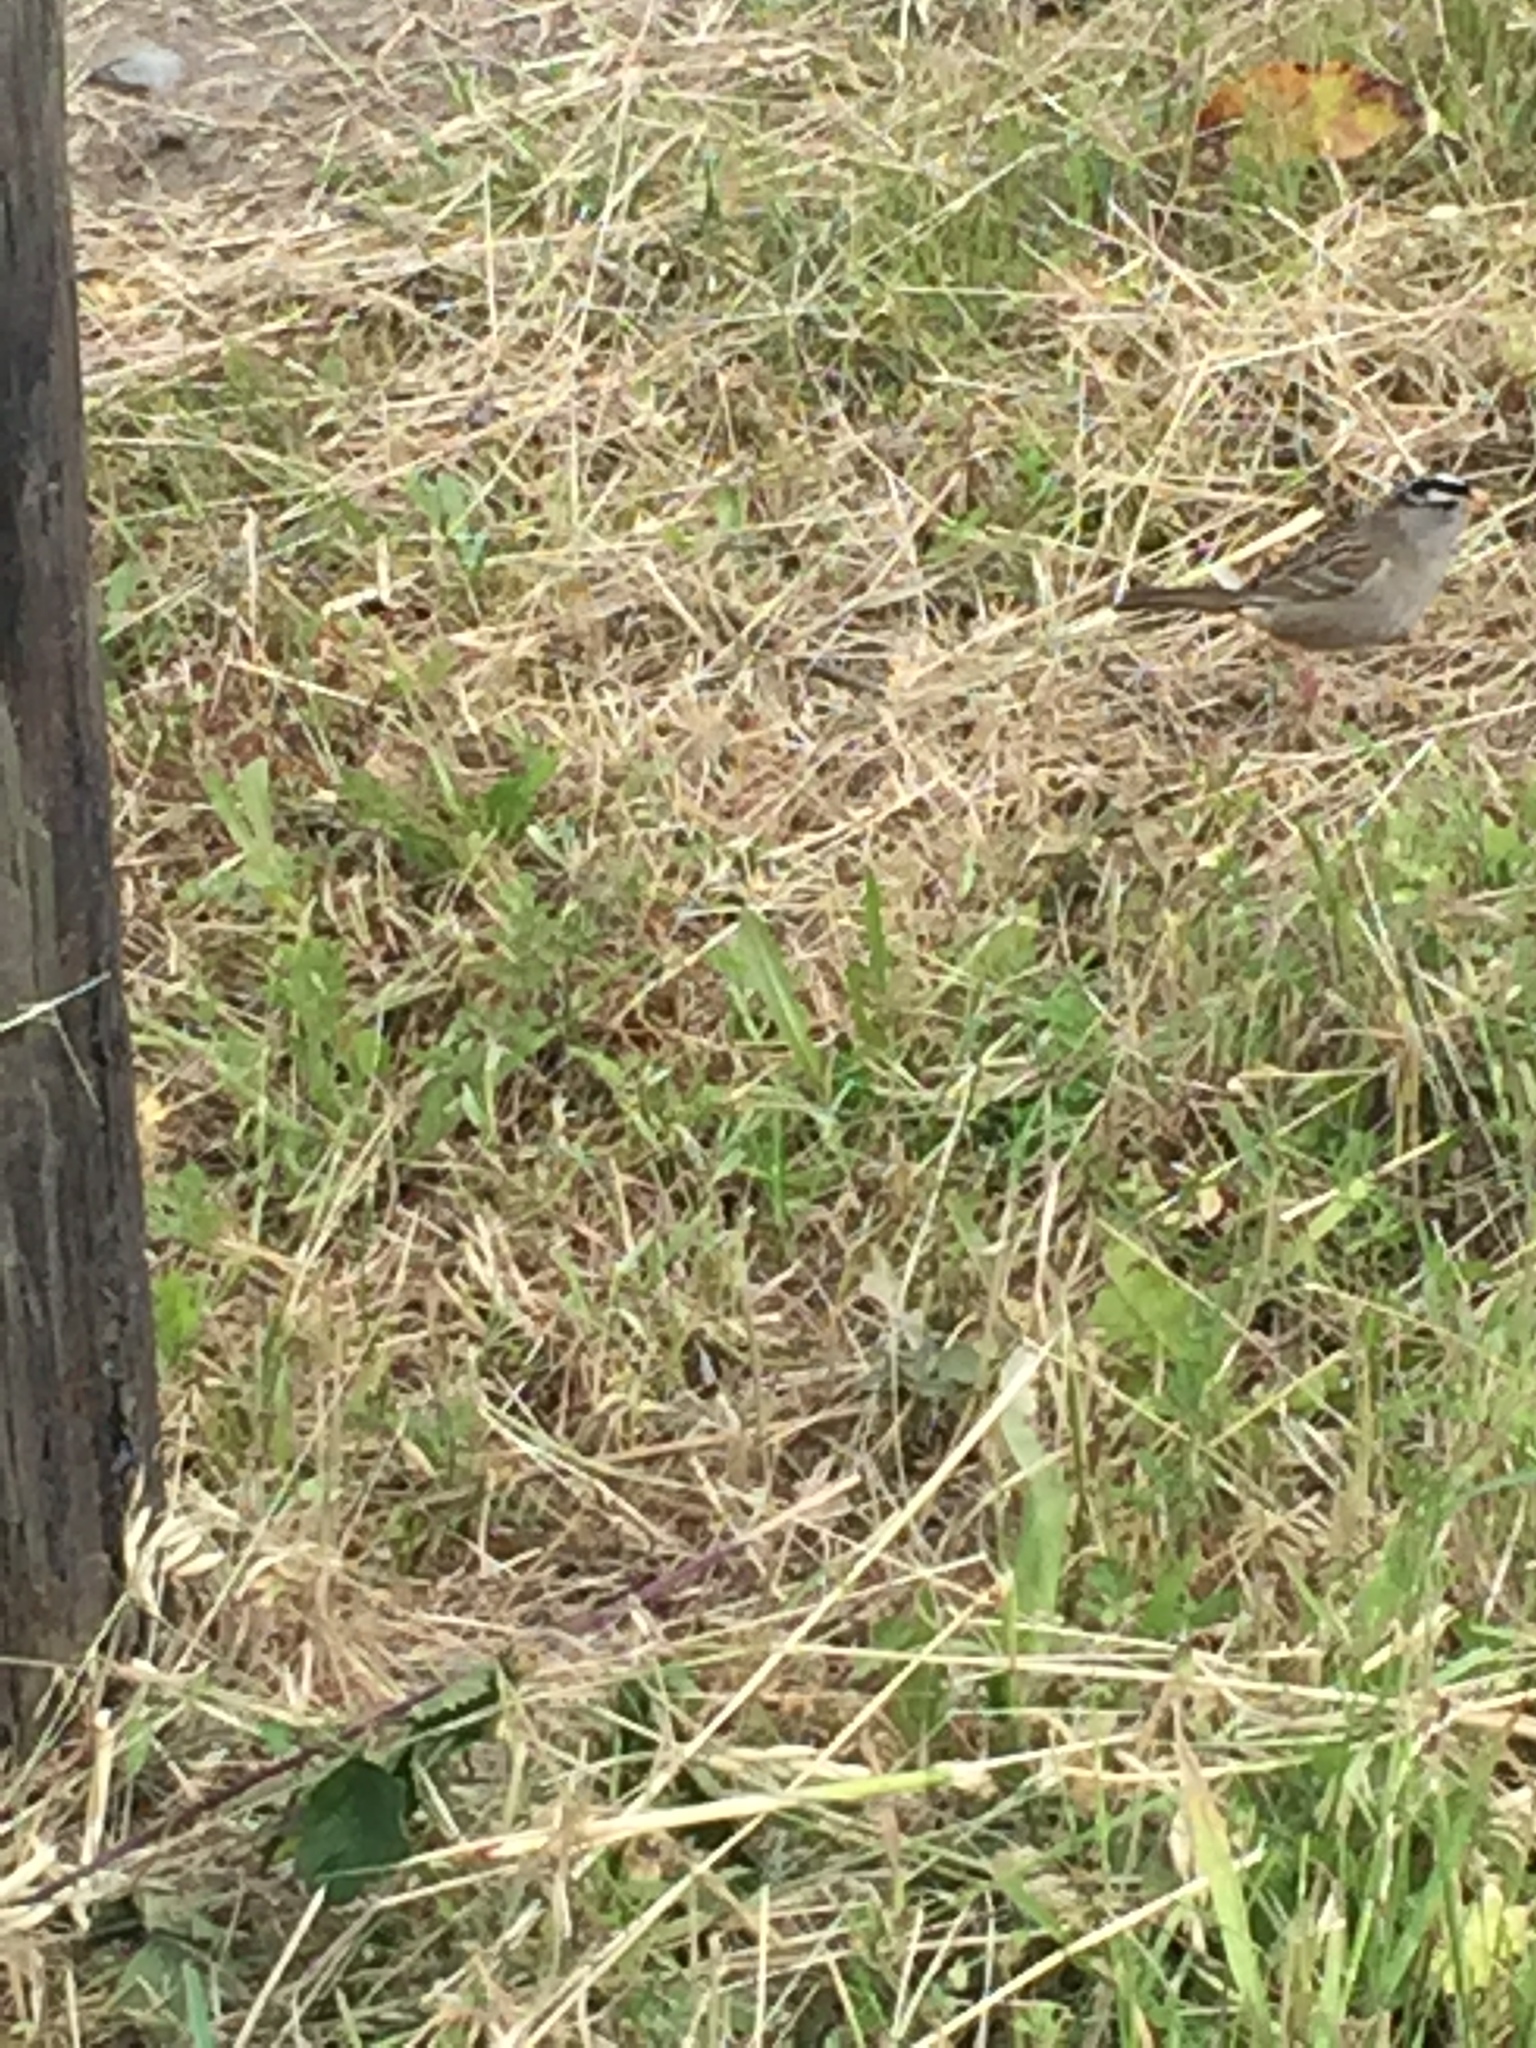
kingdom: Animalia
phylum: Chordata
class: Aves
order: Passeriformes
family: Passerellidae
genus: Zonotrichia
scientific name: Zonotrichia leucophrys
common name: White-crowned sparrow
